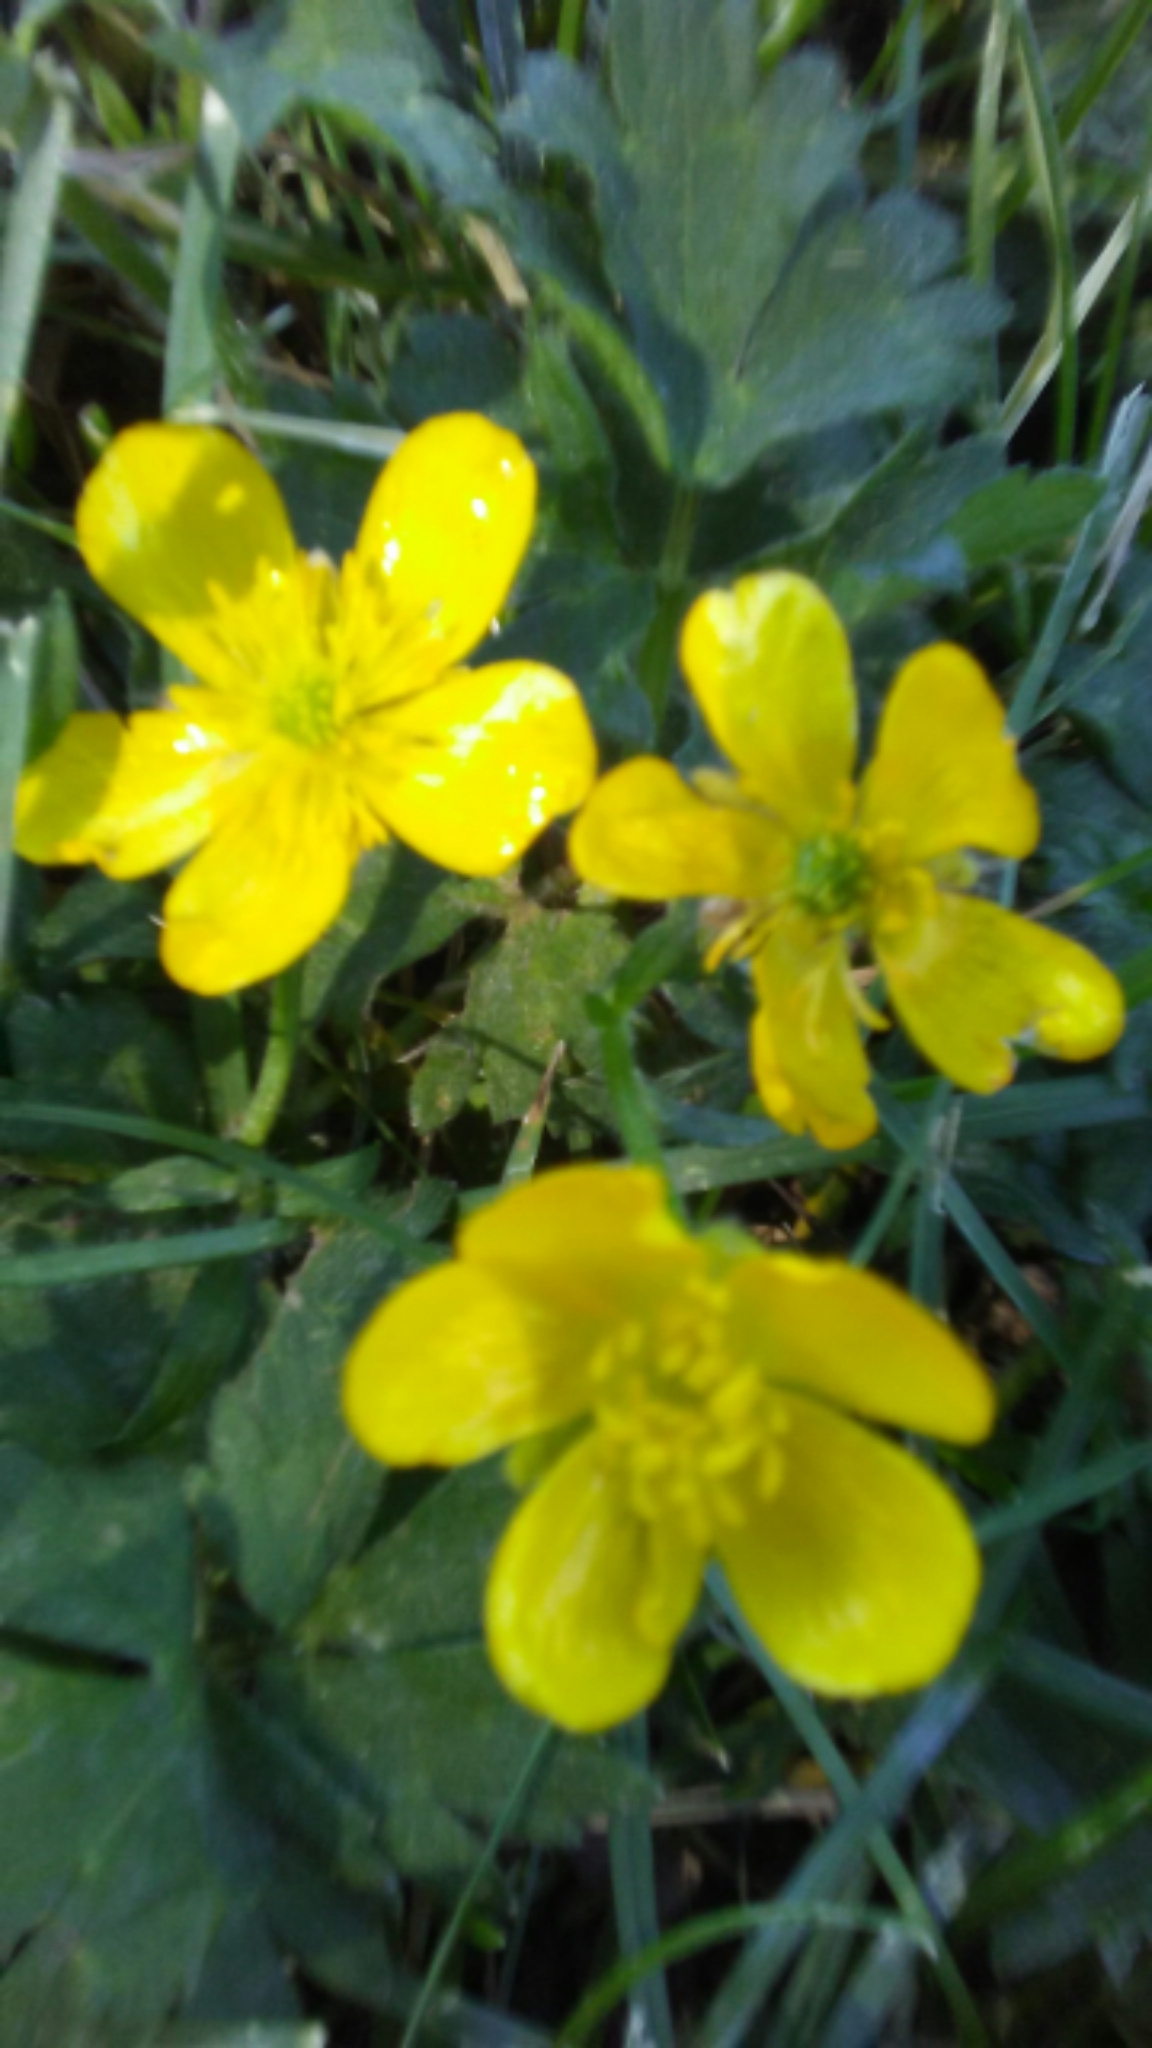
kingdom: Plantae
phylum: Tracheophyta
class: Magnoliopsida
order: Ranunculales
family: Ranunculaceae
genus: Ranunculus
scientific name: Ranunculus repens
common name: Creeping buttercup
